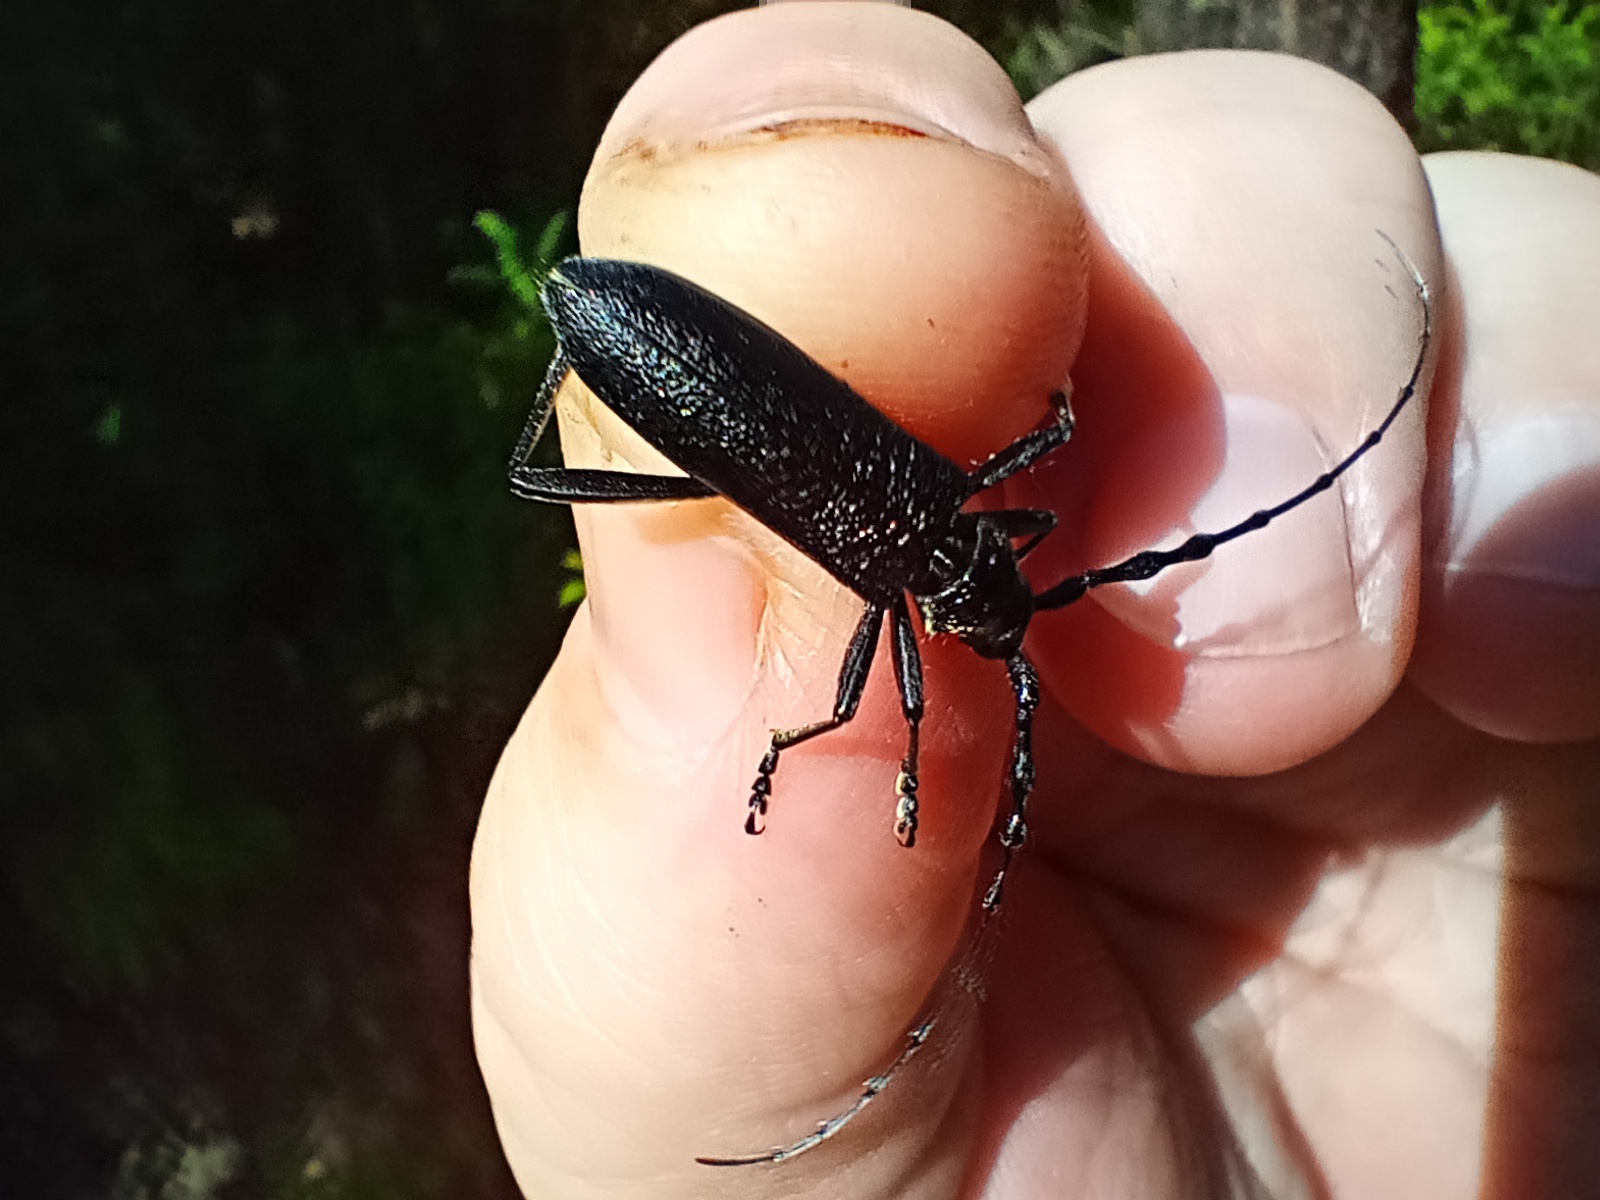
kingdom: Animalia
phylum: Arthropoda
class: Insecta
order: Coleoptera
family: Cerambycidae
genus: Cerambyx
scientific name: Cerambyx scopolii
